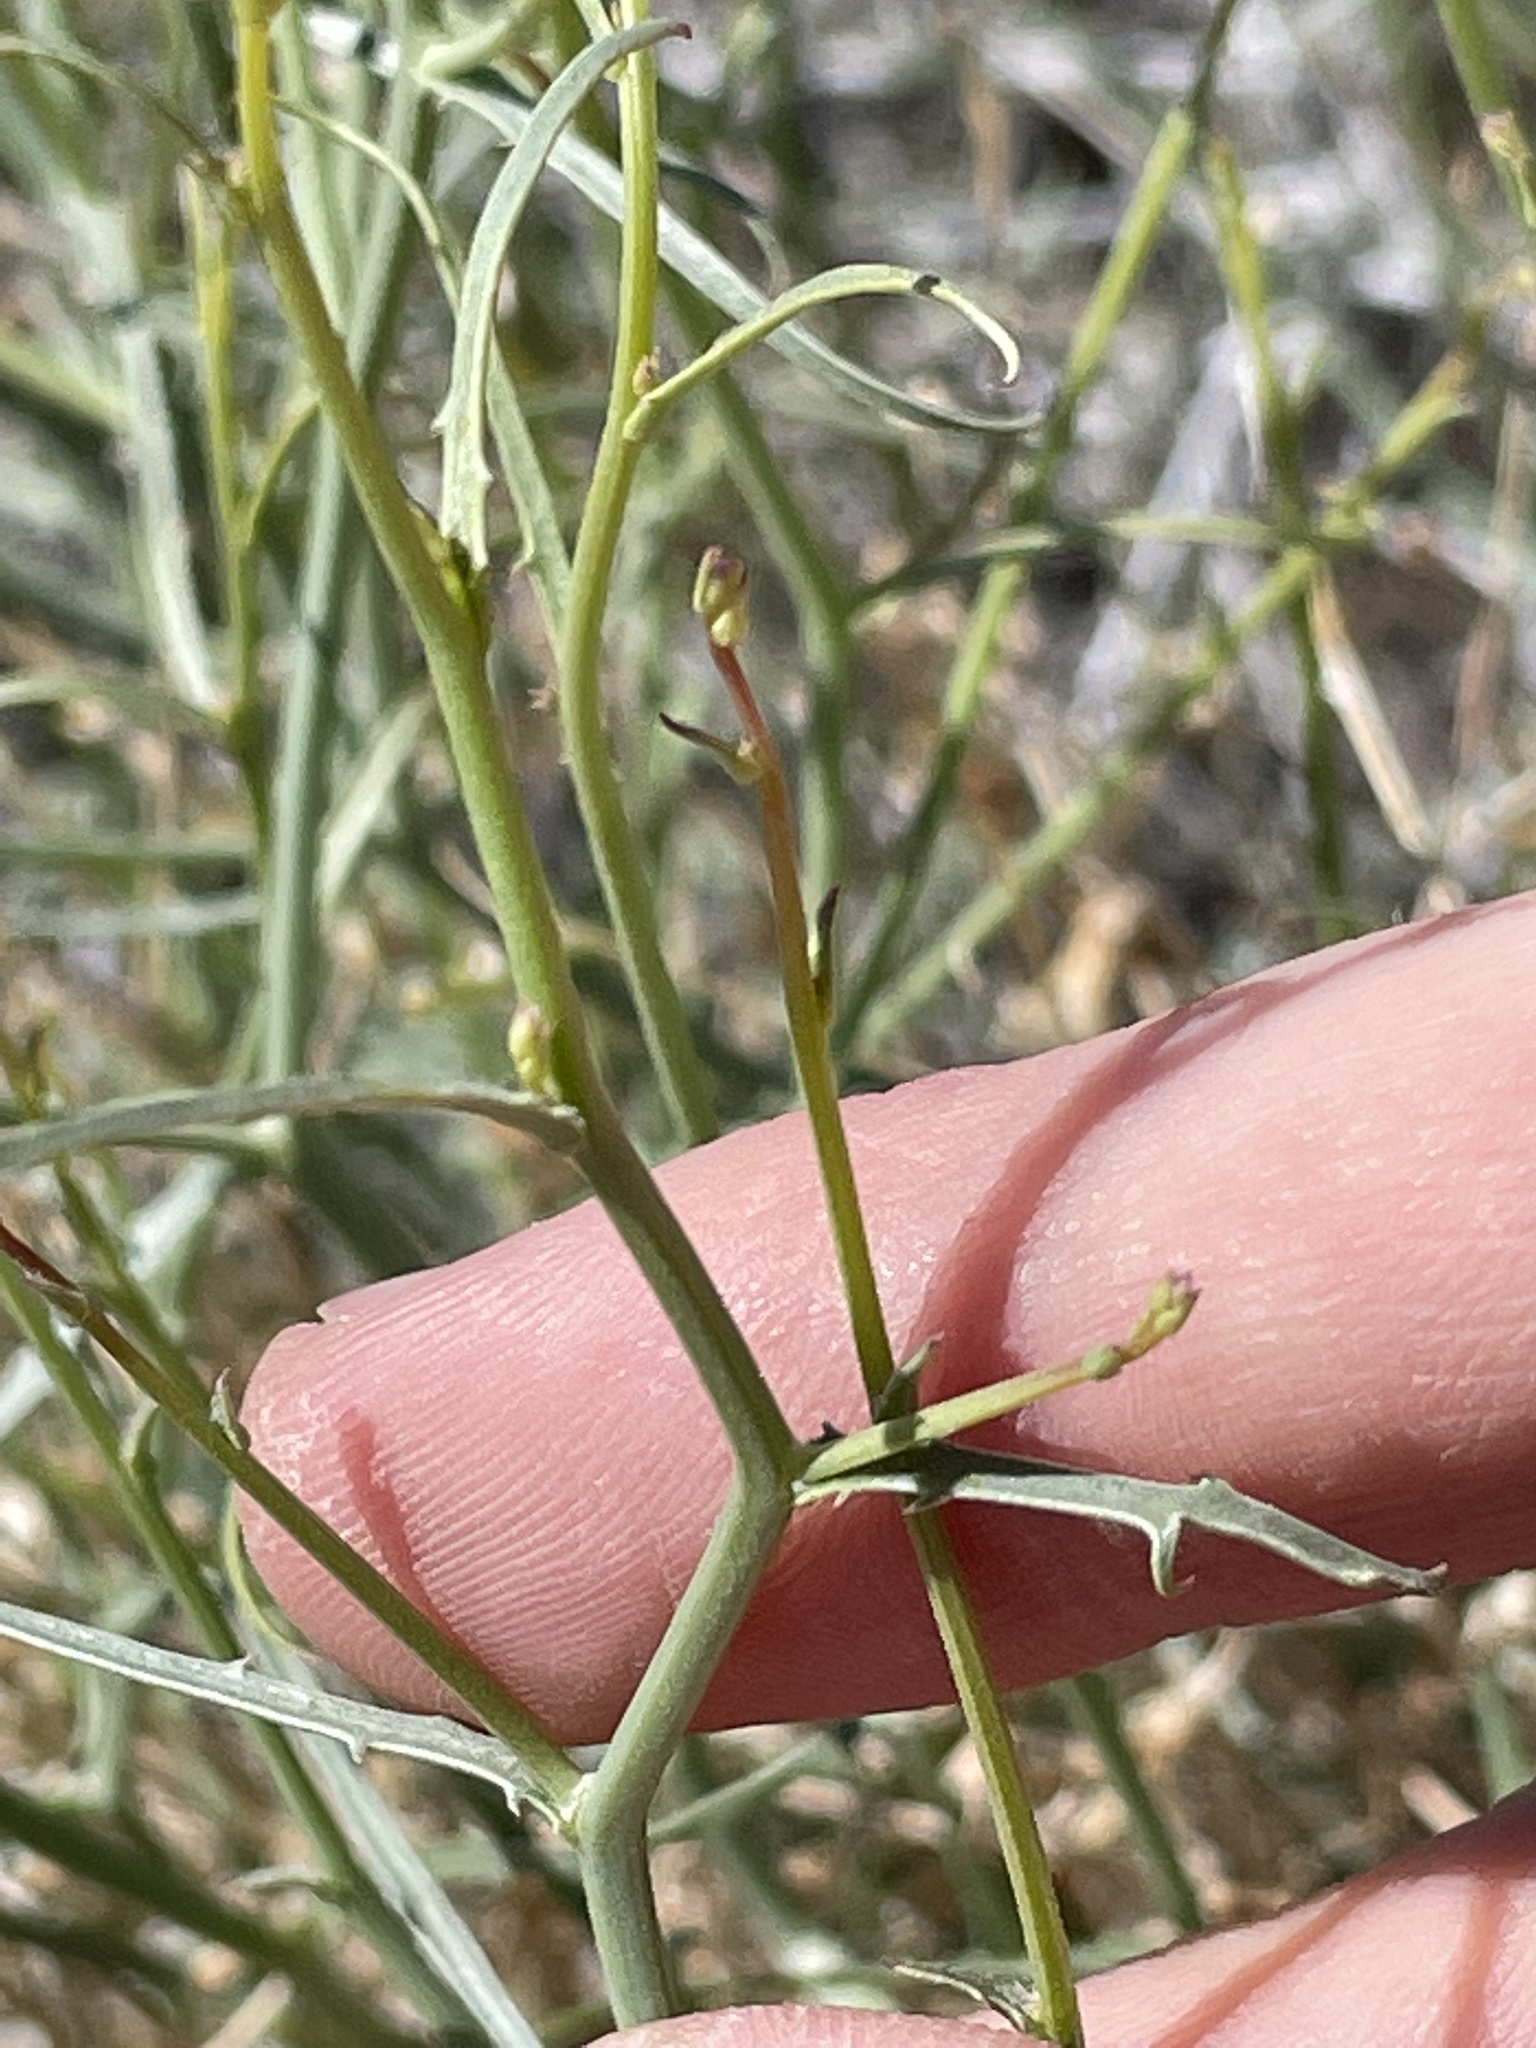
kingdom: Plantae
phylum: Tracheophyta
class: Magnoliopsida
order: Asterales
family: Asteraceae
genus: Stephanomeria
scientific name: Stephanomeria pauciflora
